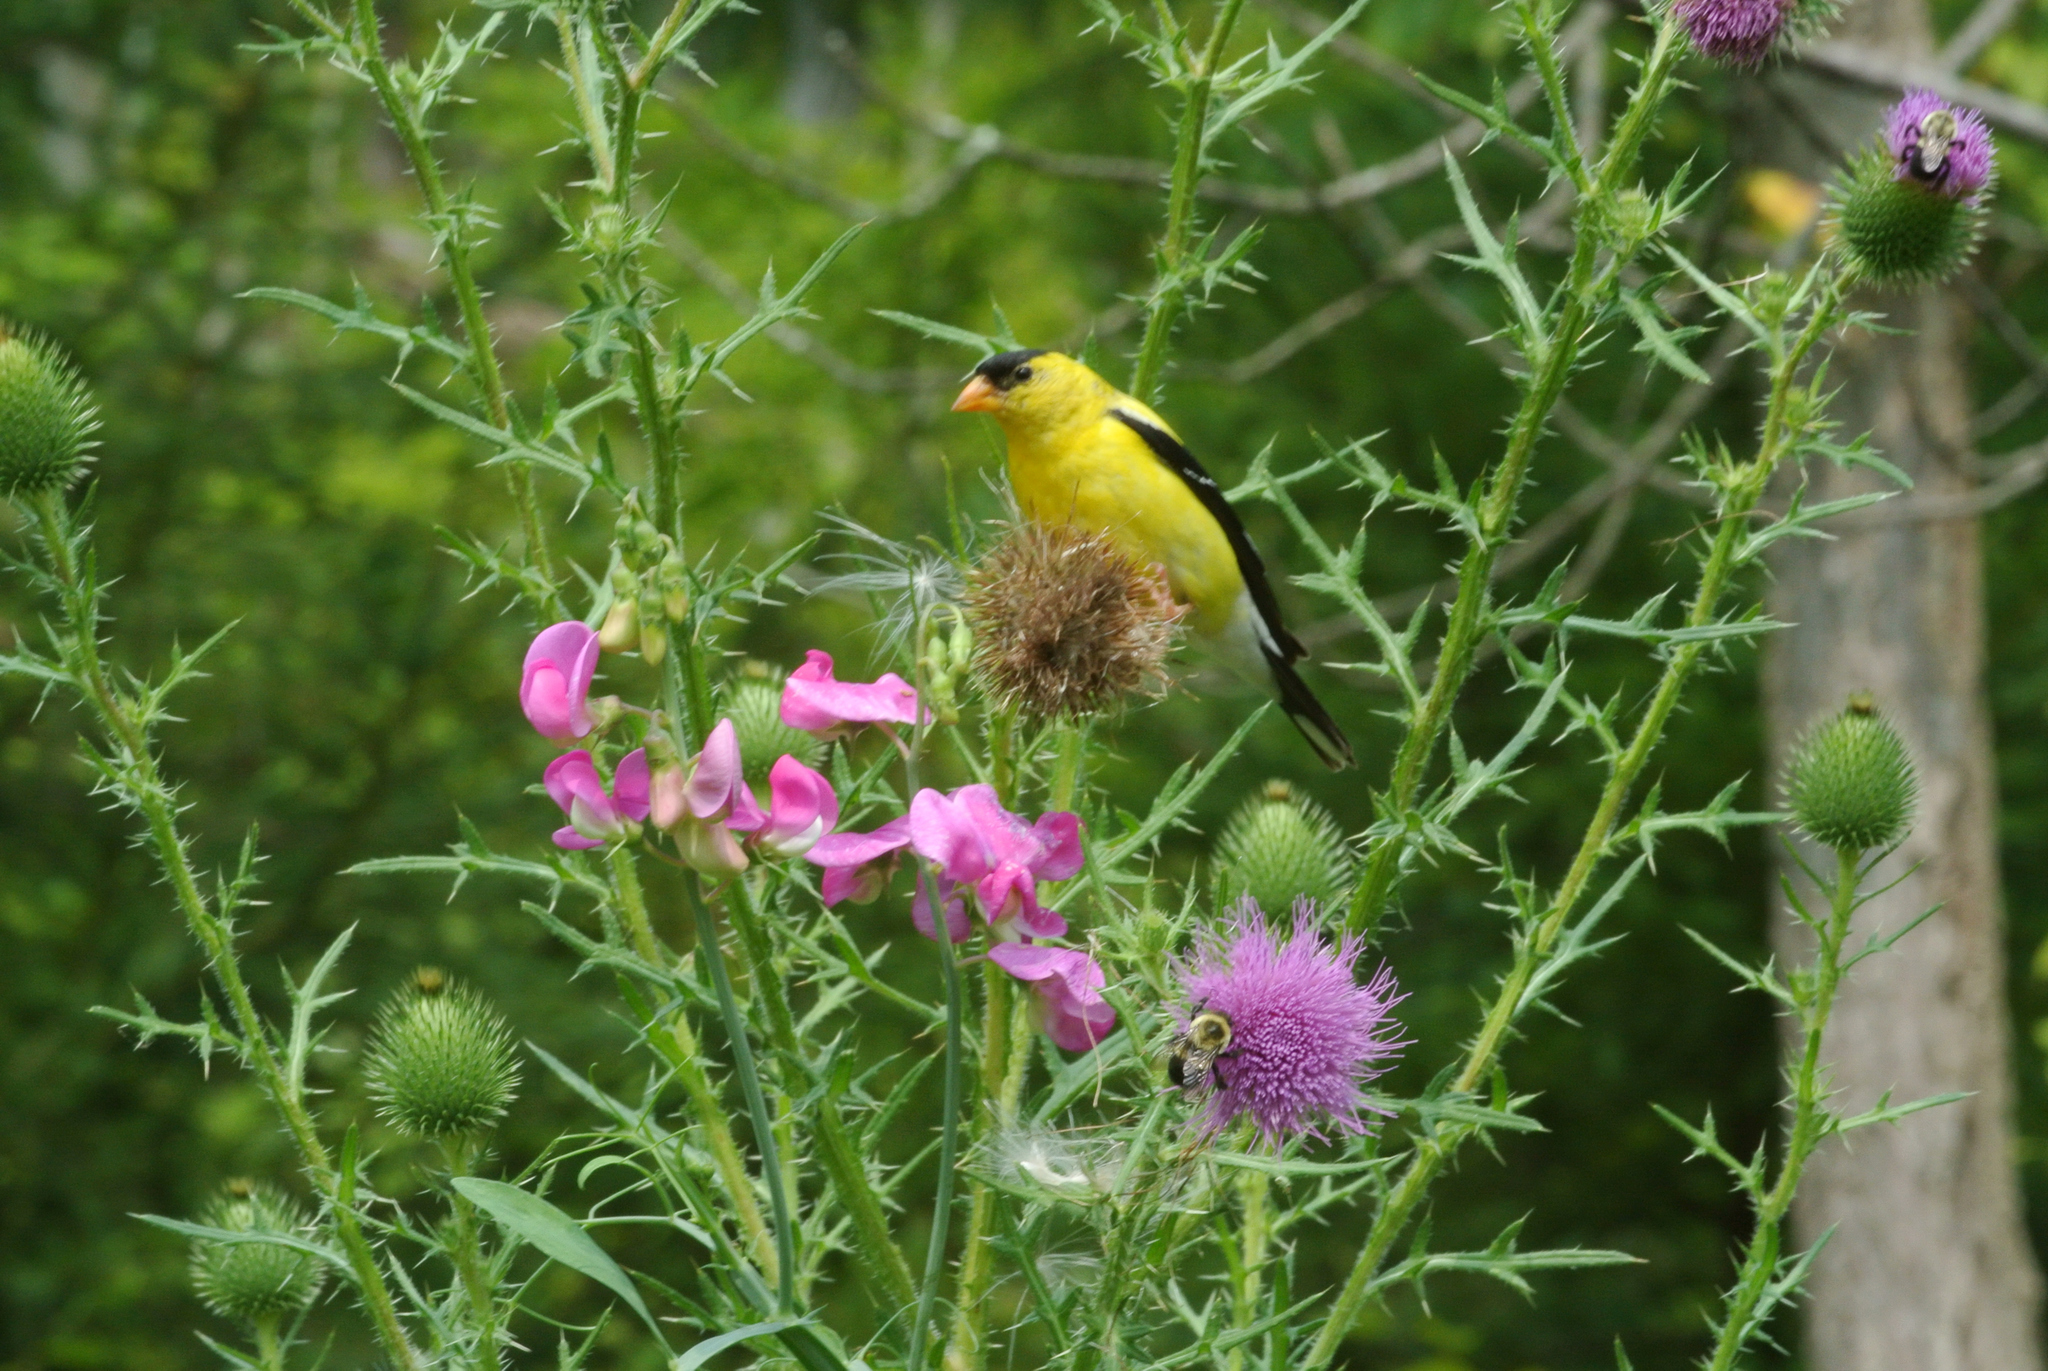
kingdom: Animalia
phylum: Chordata
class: Aves
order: Passeriformes
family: Fringillidae
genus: Spinus
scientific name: Spinus tristis
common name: American goldfinch
